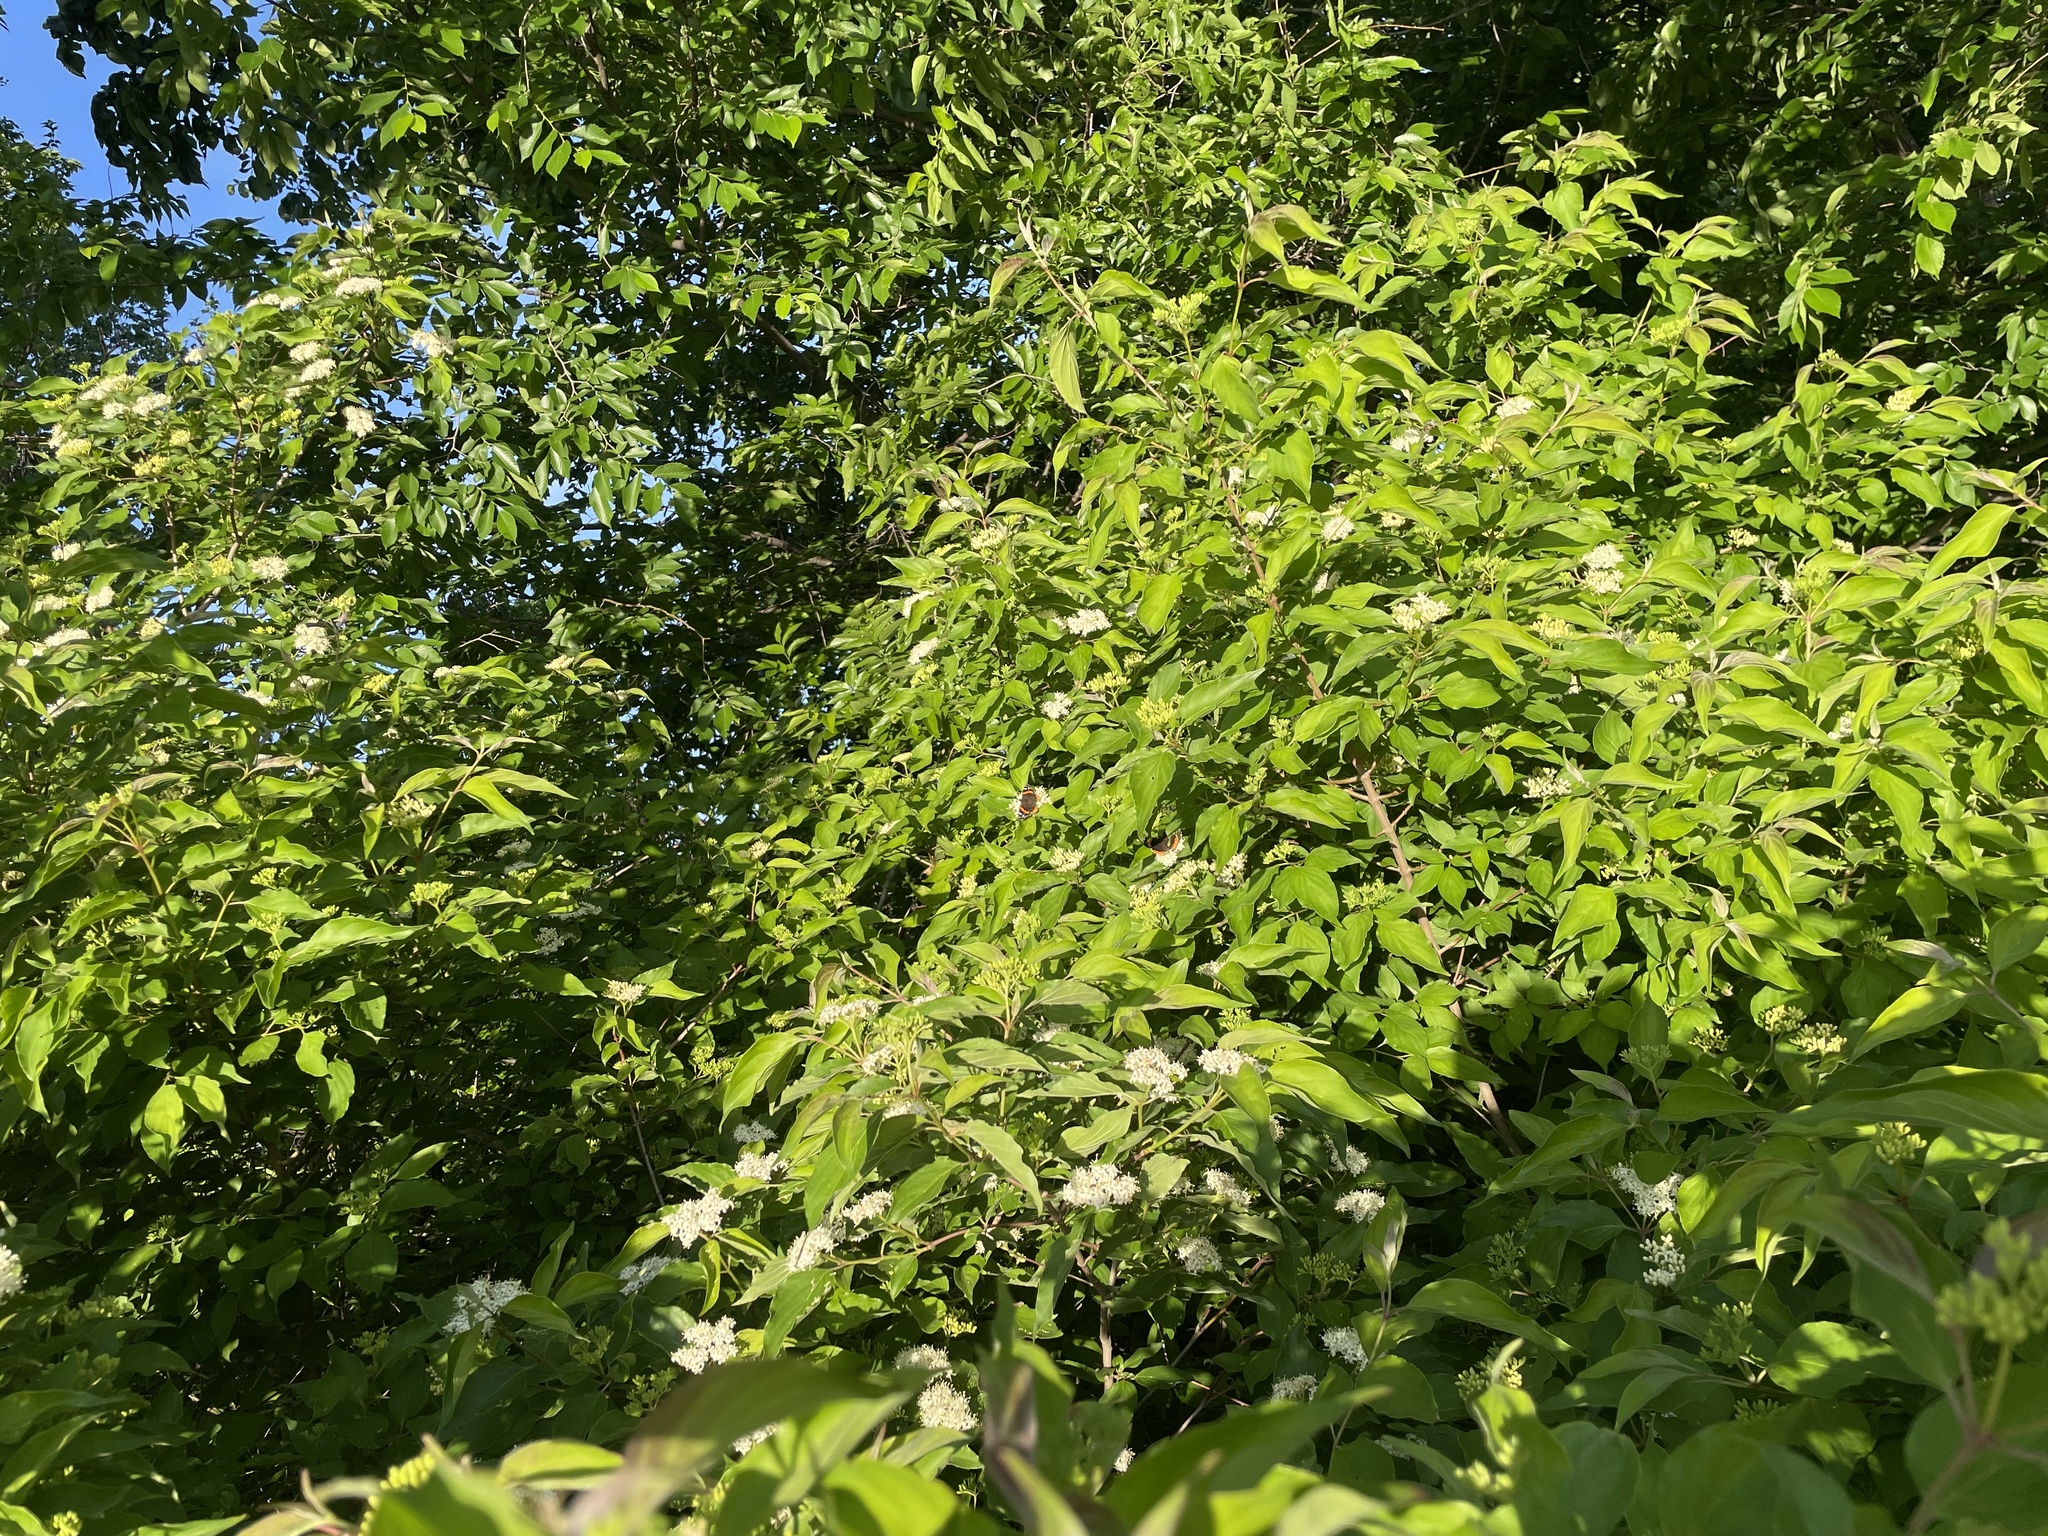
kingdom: Plantae
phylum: Tracheophyta
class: Magnoliopsida
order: Cornales
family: Cornaceae
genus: Cornus
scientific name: Cornus drummondii
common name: Rough-leaf dogwood
